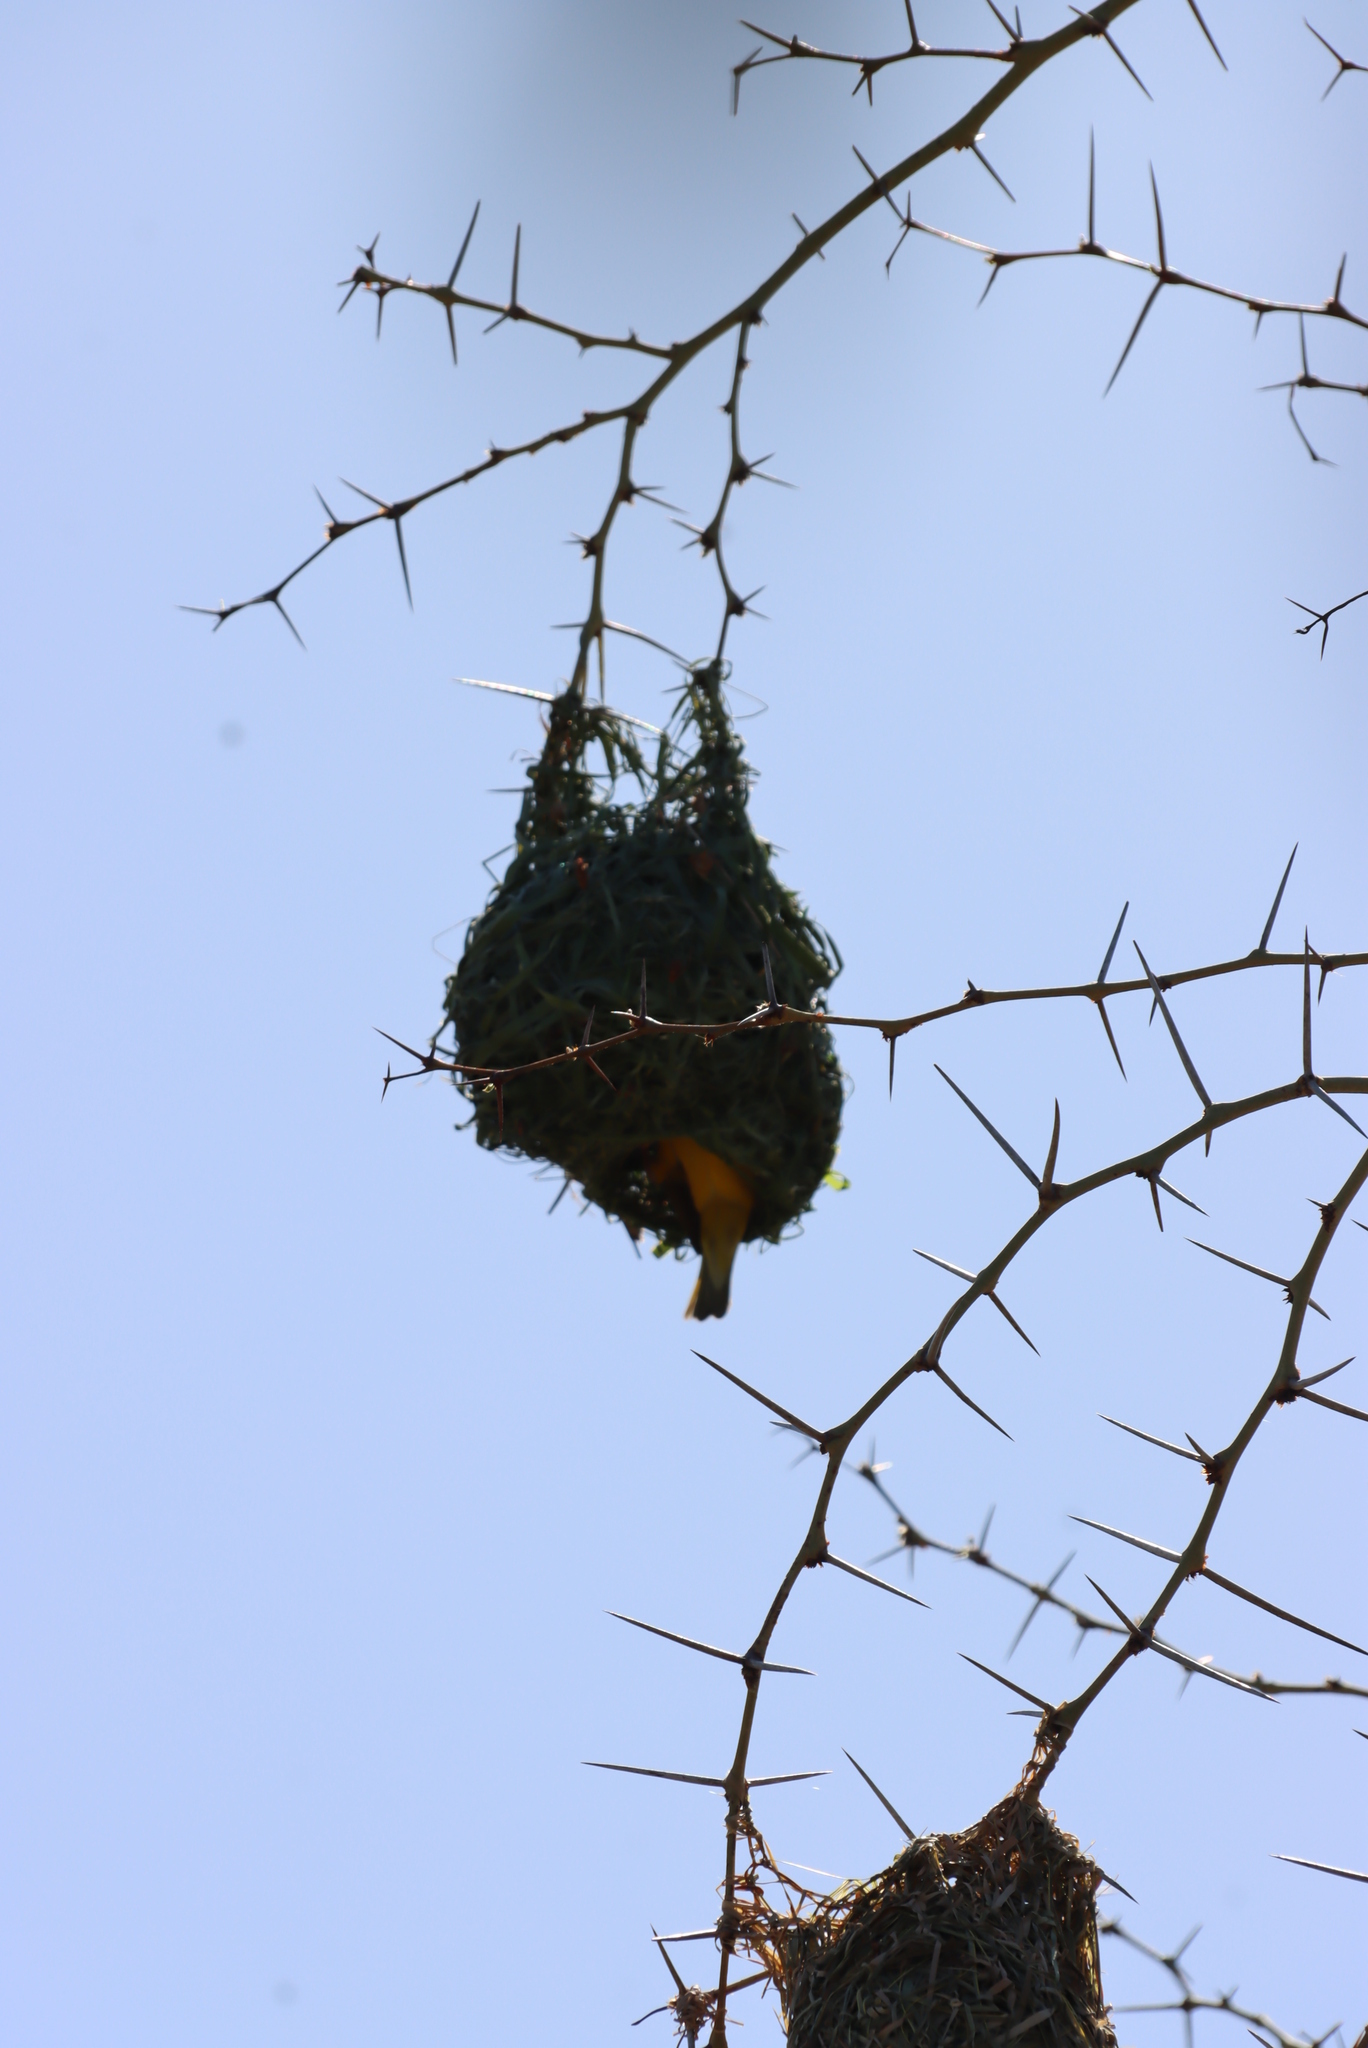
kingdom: Animalia
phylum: Chordata
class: Aves
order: Passeriformes
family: Ploceidae
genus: Ploceus
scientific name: Ploceus capensis
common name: Cape weaver
